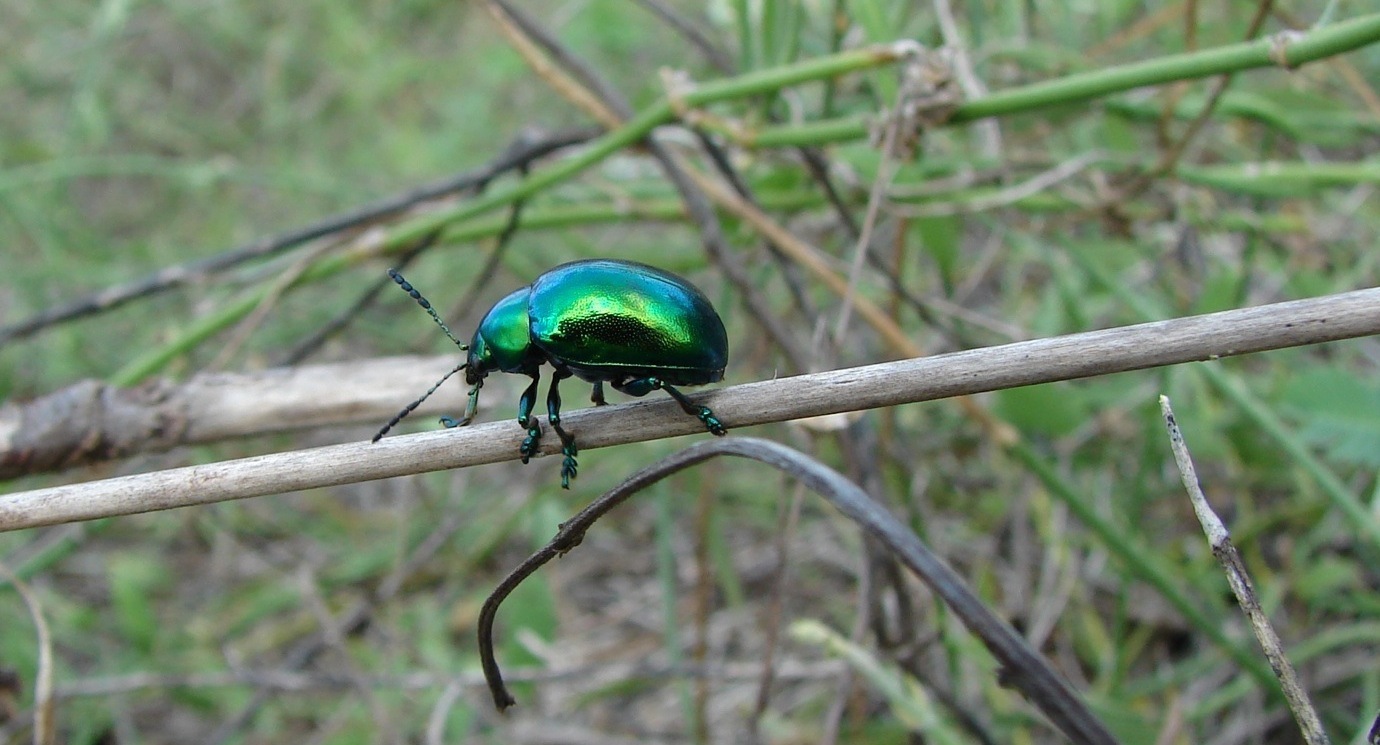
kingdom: Animalia
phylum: Arthropoda
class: Insecta
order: Coleoptera
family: Chrysomelidae
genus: Eumolpus
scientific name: Eumolpus robustus
